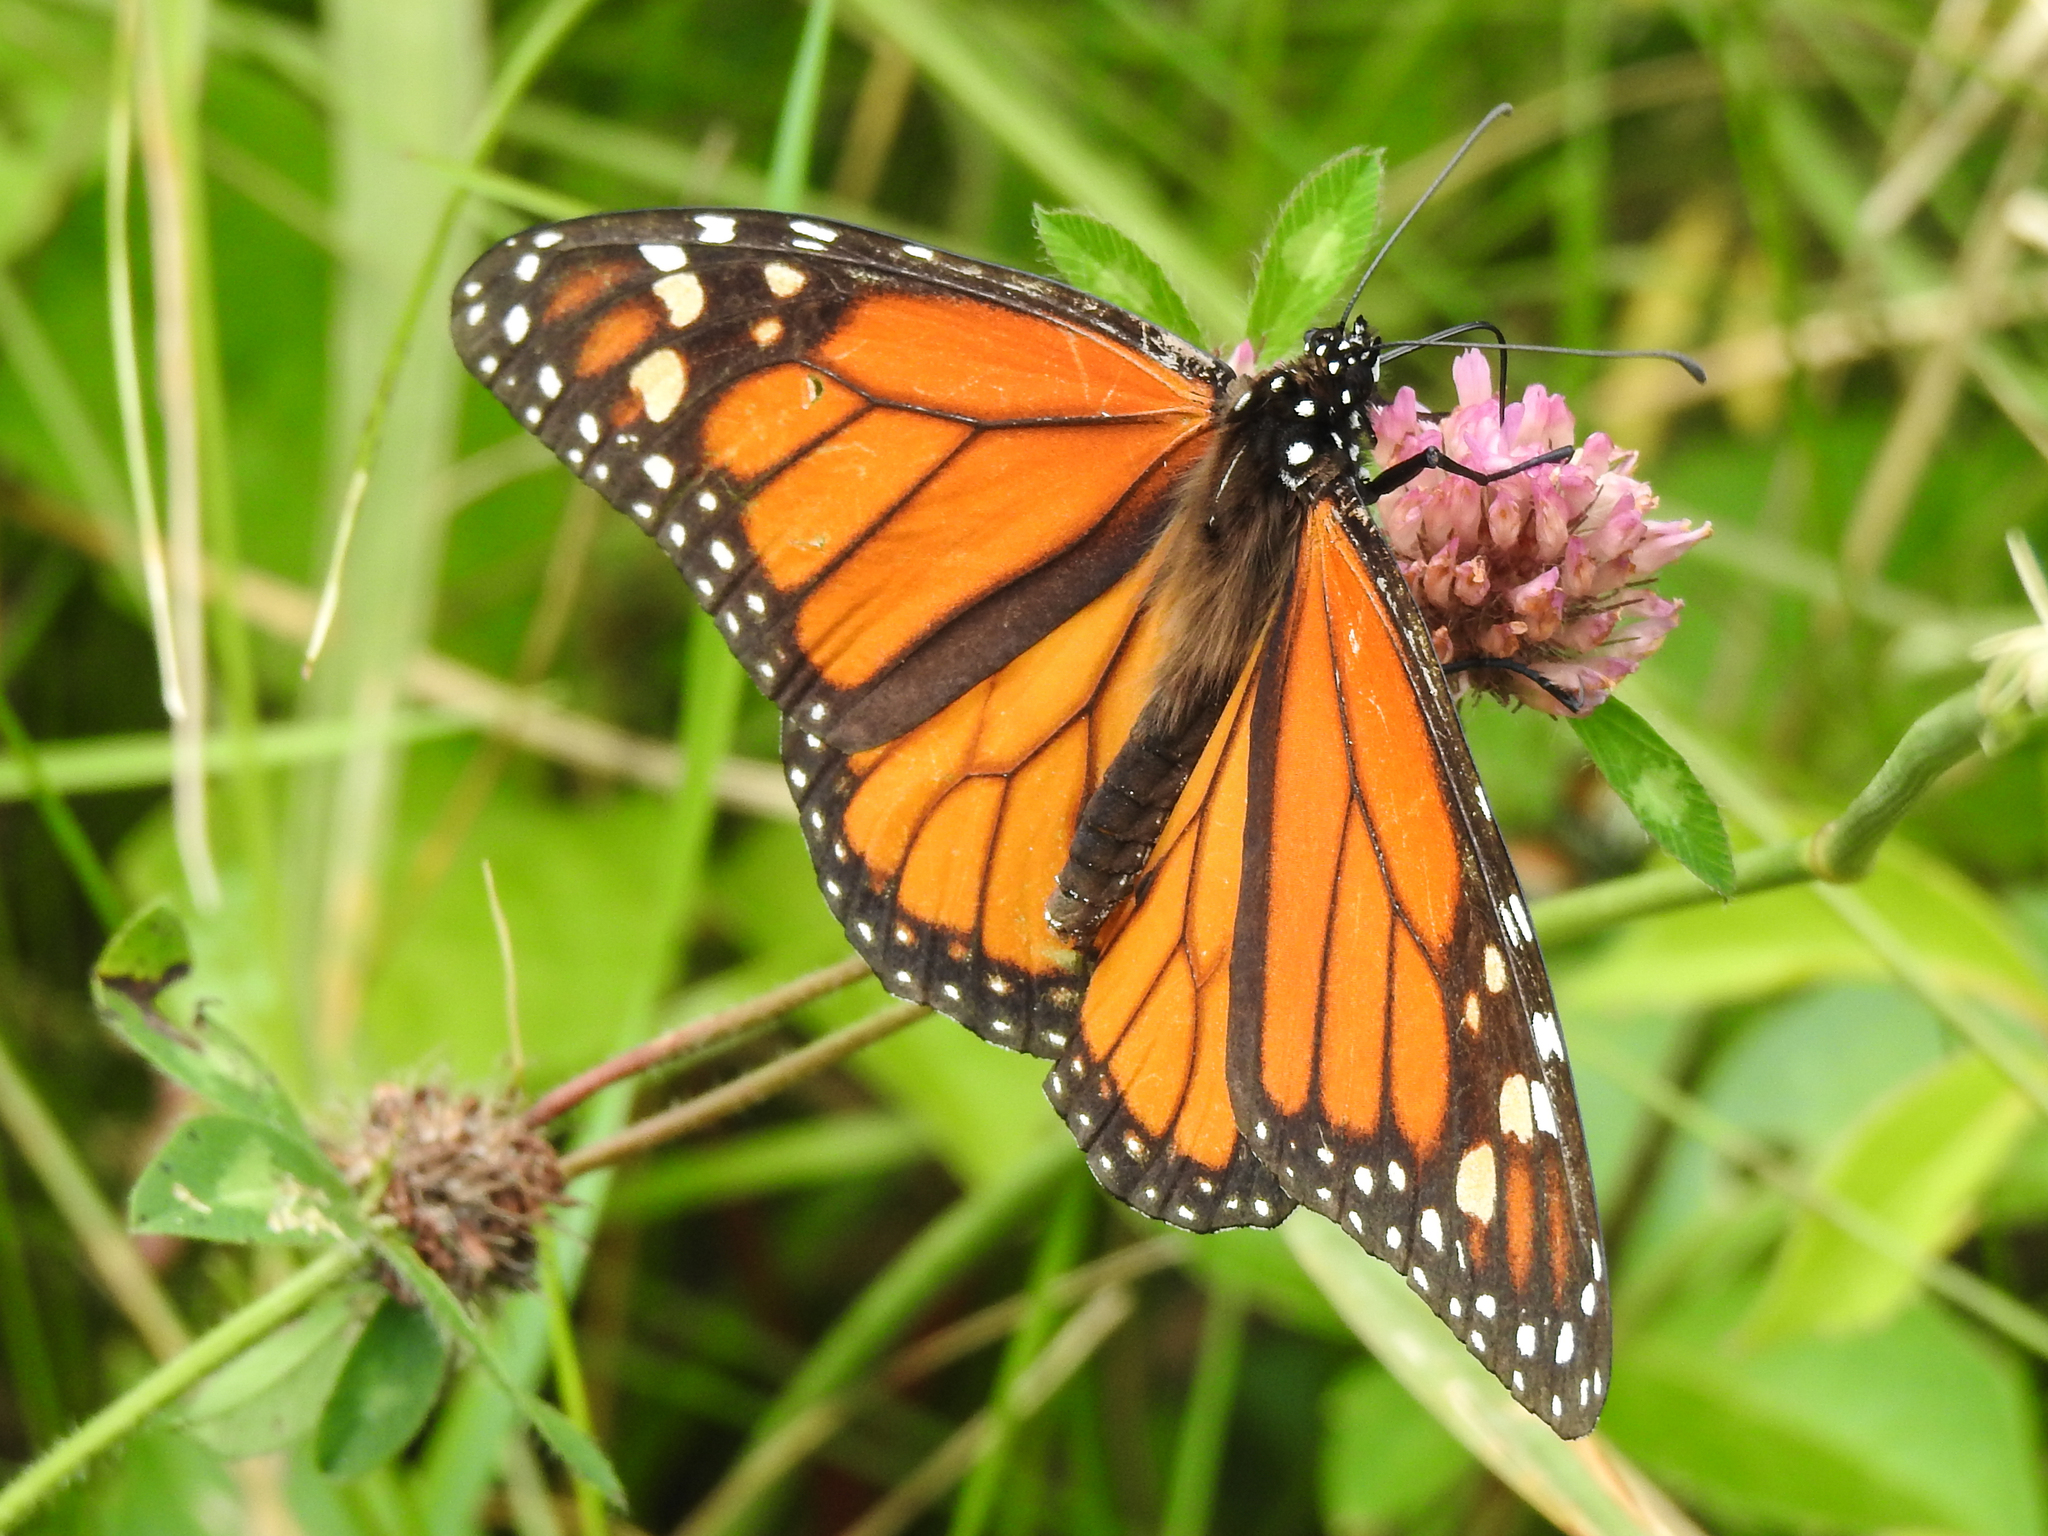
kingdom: Animalia
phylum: Arthropoda
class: Insecta
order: Lepidoptera
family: Nymphalidae
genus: Danaus
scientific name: Danaus plexippus
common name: Monarch
